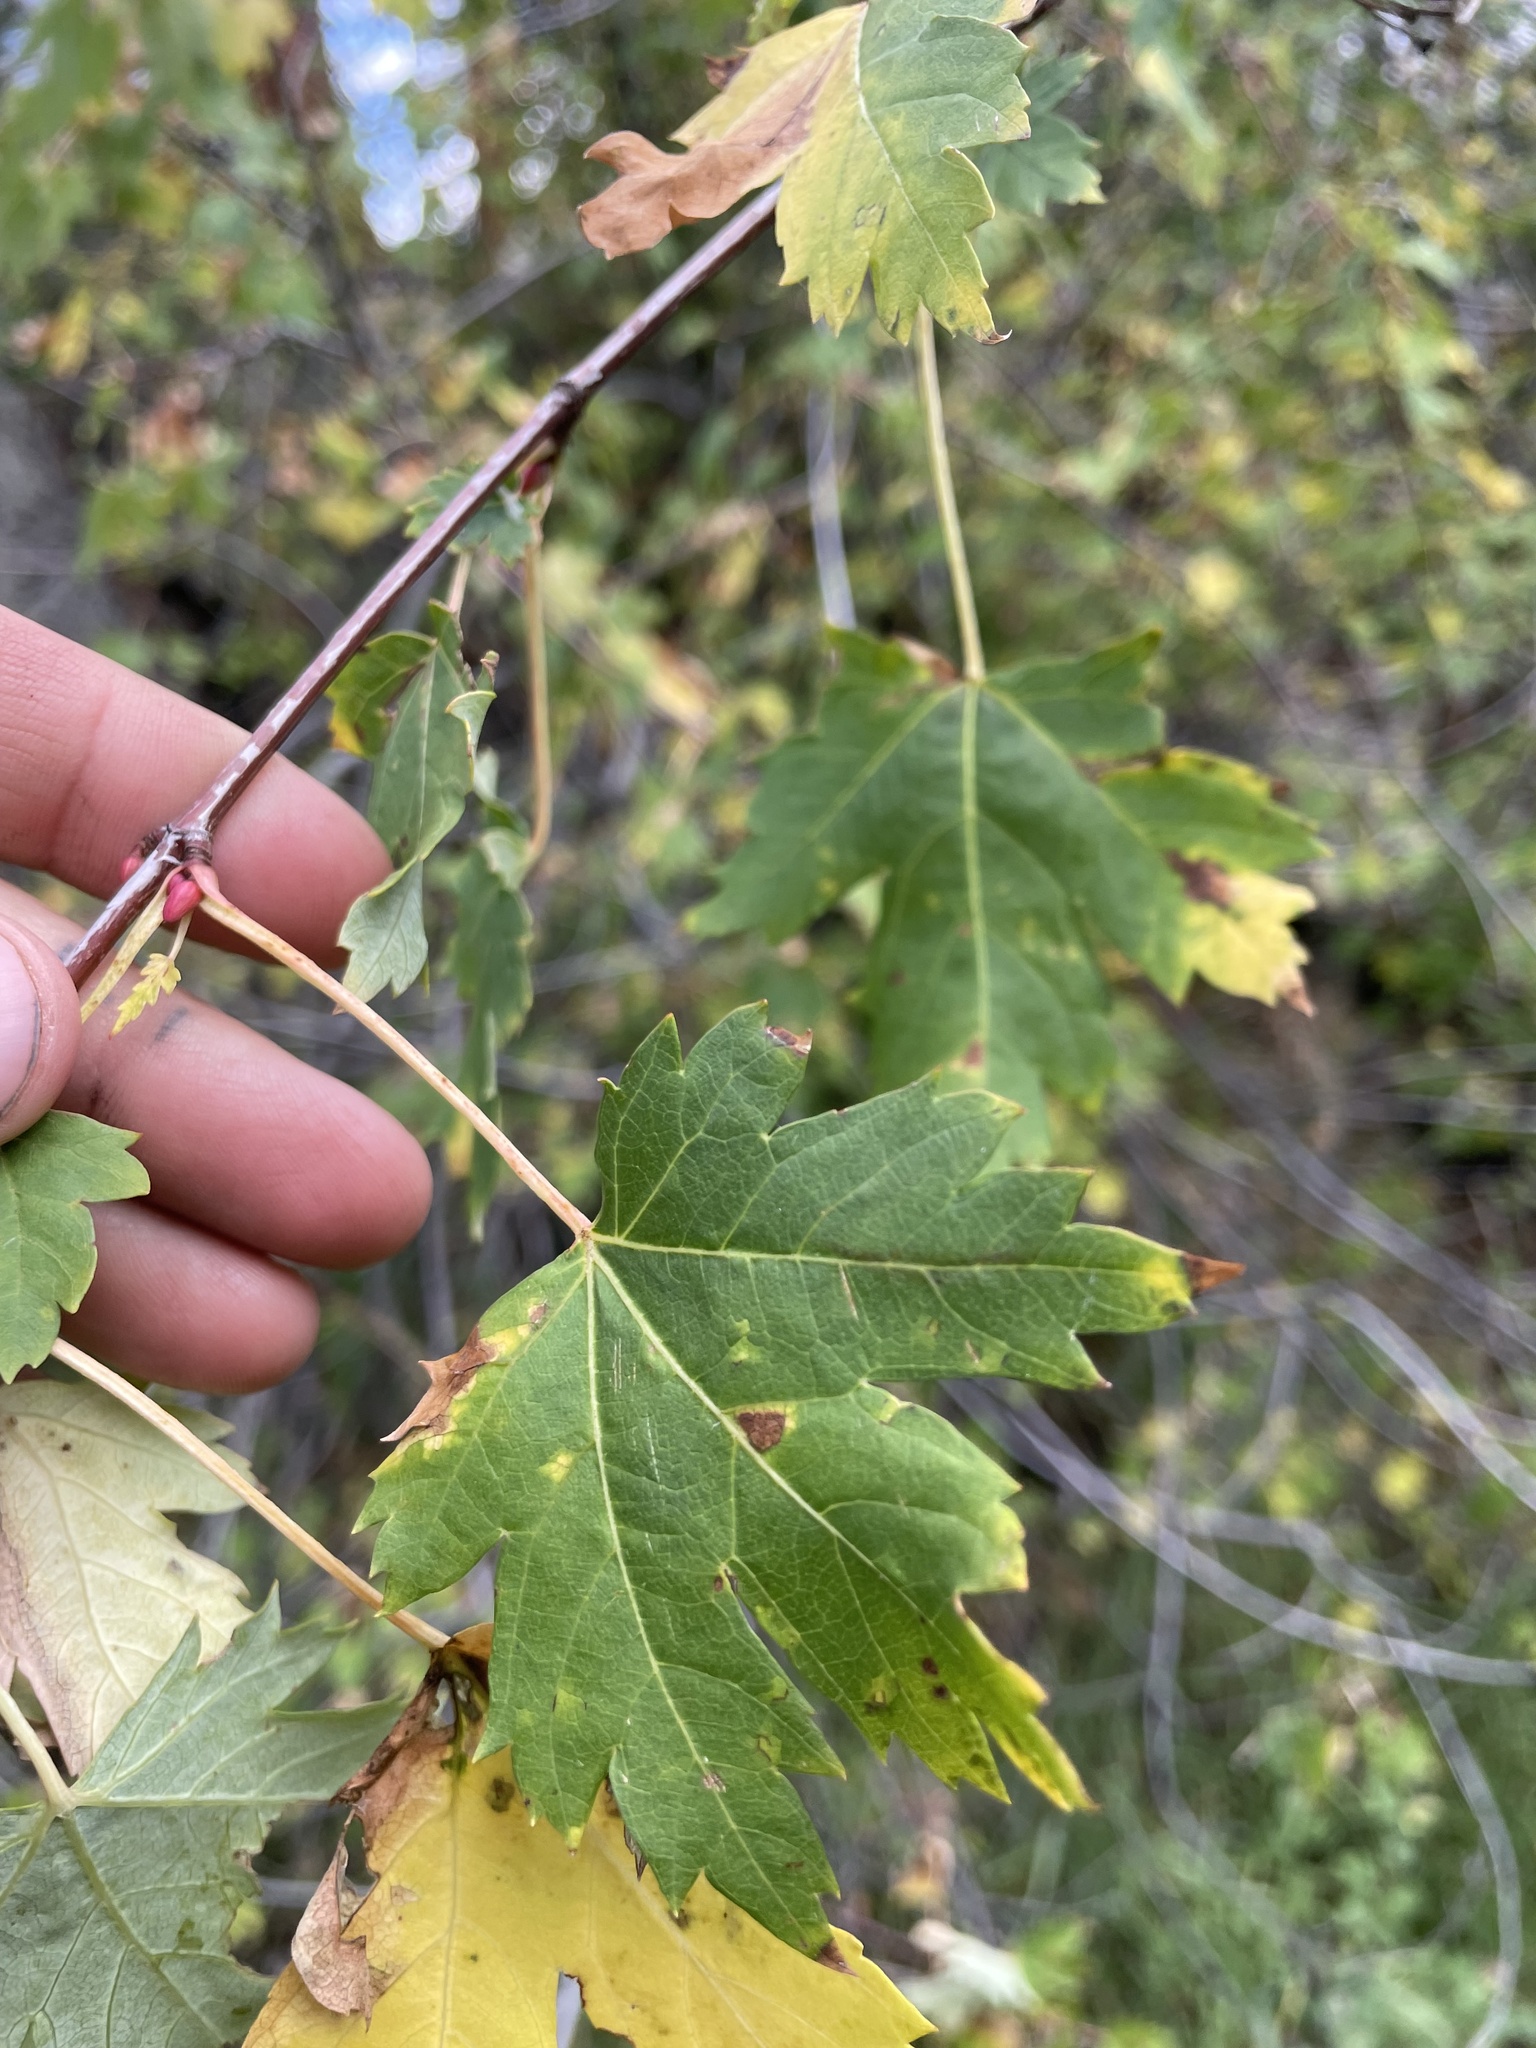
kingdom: Plantae
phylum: Tracheophyta
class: Magnoliopsida
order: Sapindales
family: Sapindaceae
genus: Acer
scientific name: Acer glabrum
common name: Rocky mountain maple
